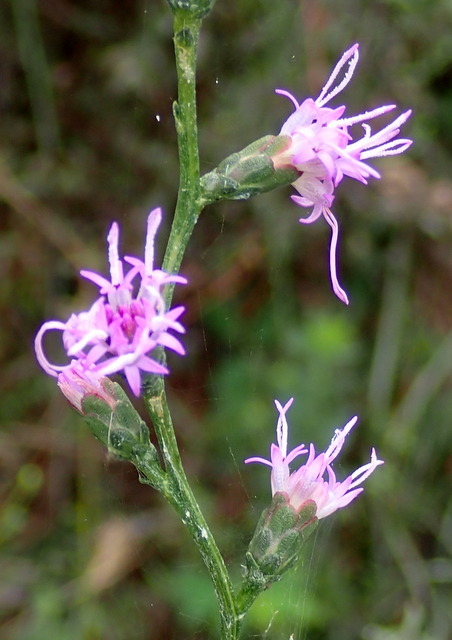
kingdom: Plantae
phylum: Tracheophyta
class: Magnoliopsida
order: Asterales
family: Asteraceae
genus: Liatris
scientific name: Liatris elegantula
